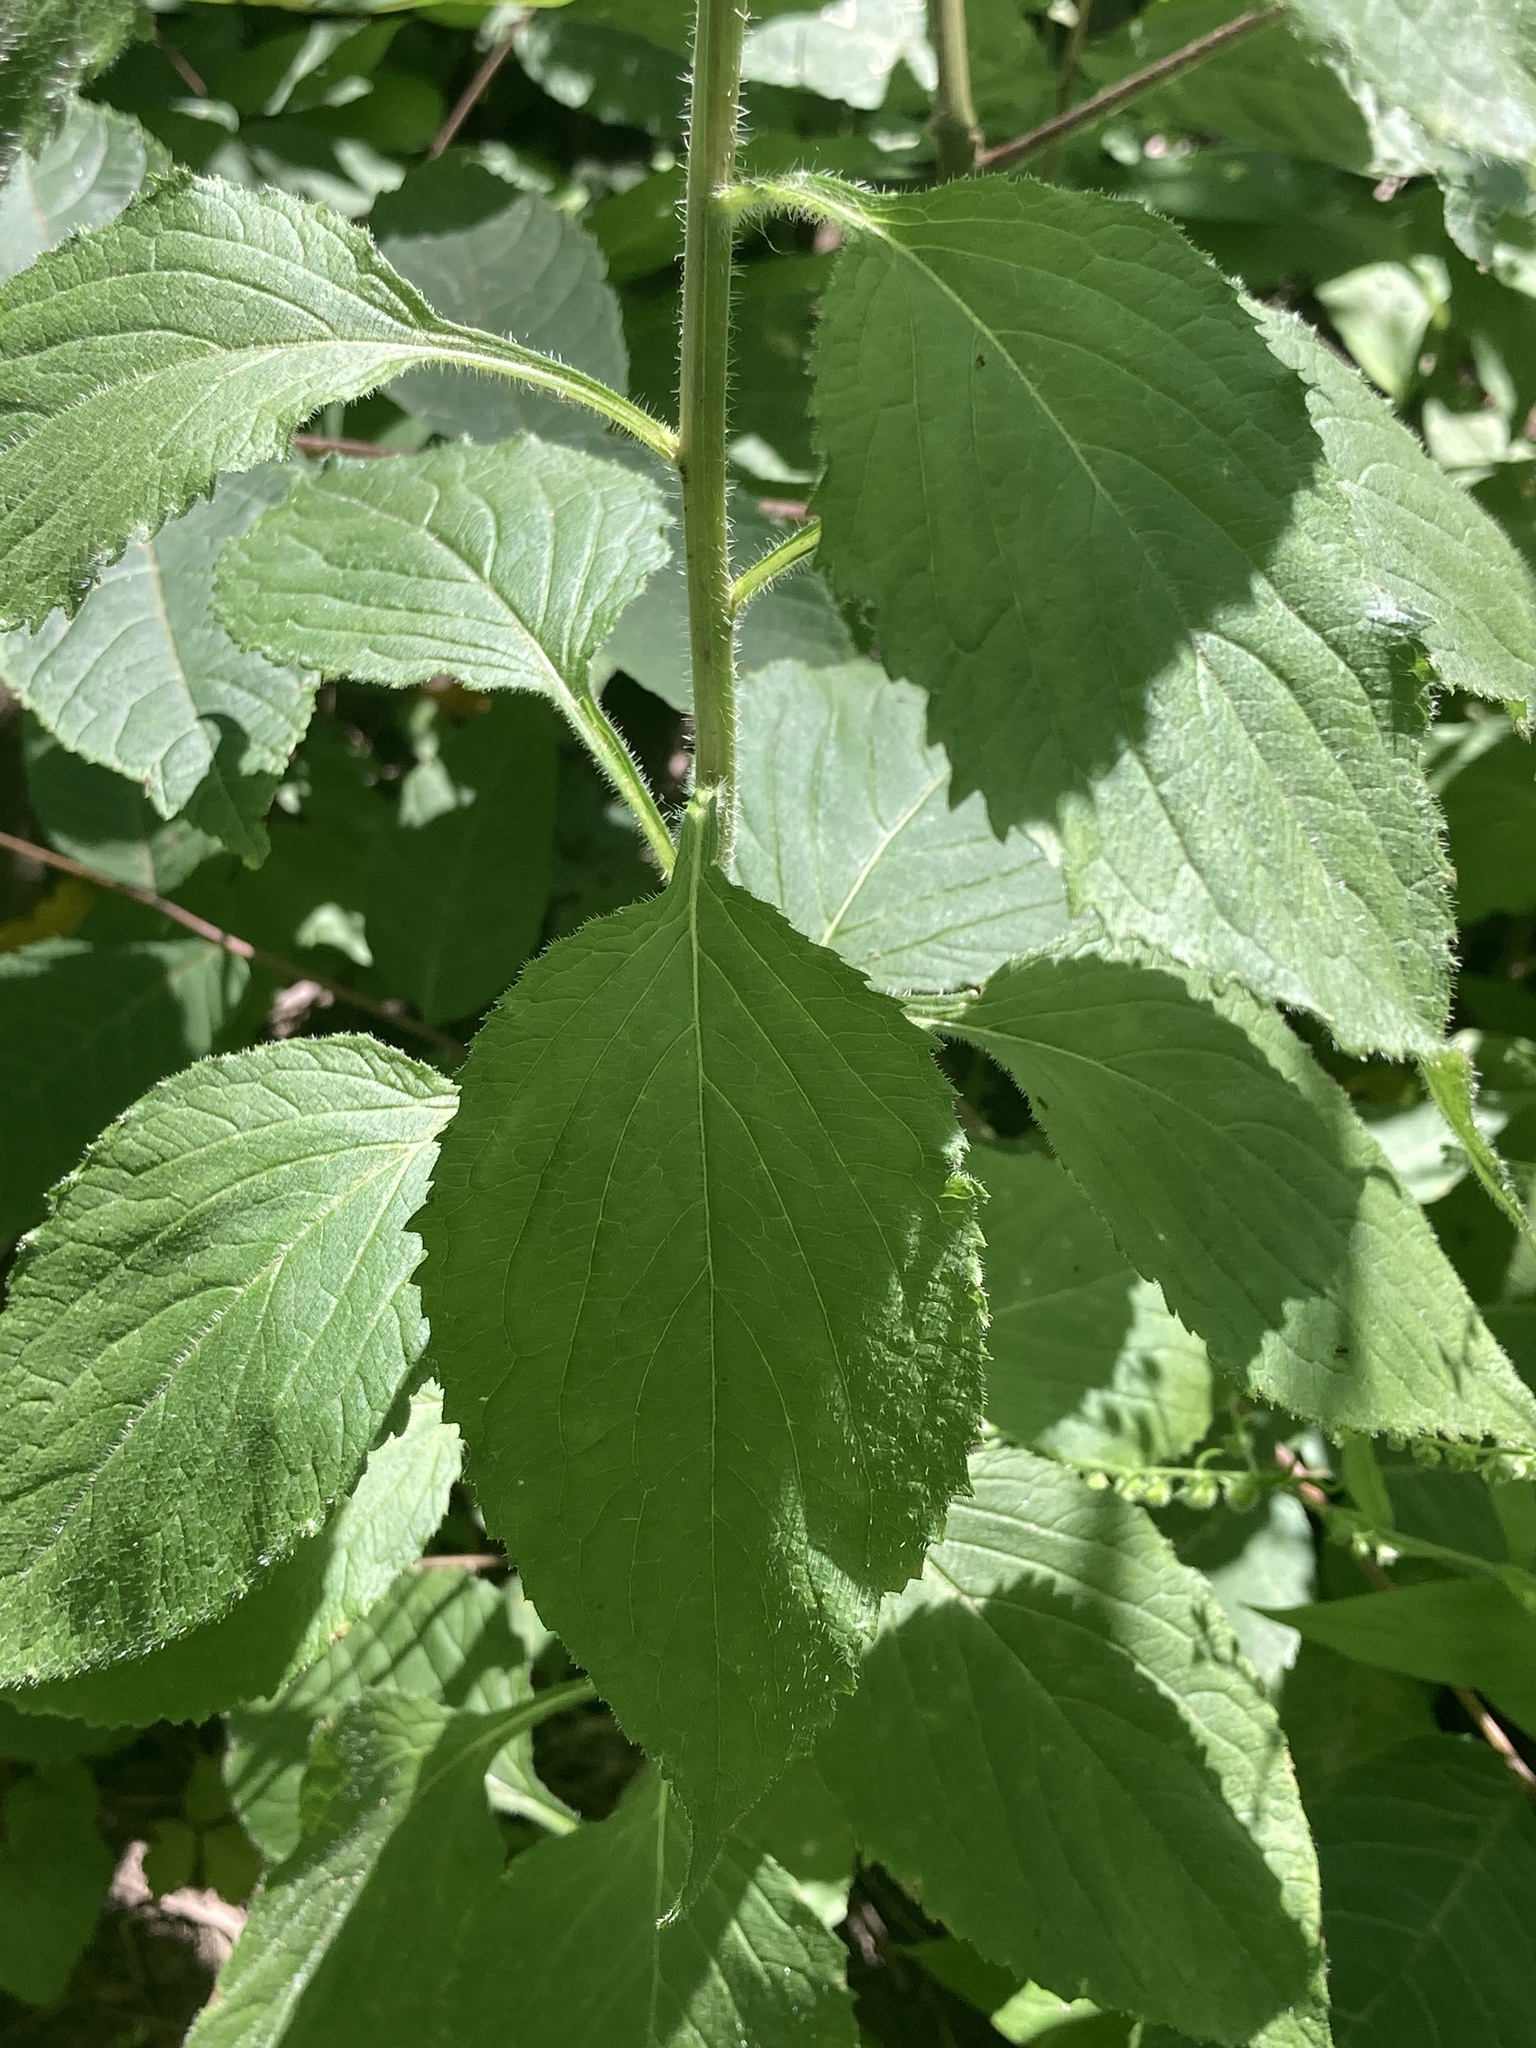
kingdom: Plantae
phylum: Tracheophyta
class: Magnoliopsida
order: Asterales
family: Campanulaceae
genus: Campanulastrum
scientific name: Campanulastrum americanum
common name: American bellflower
